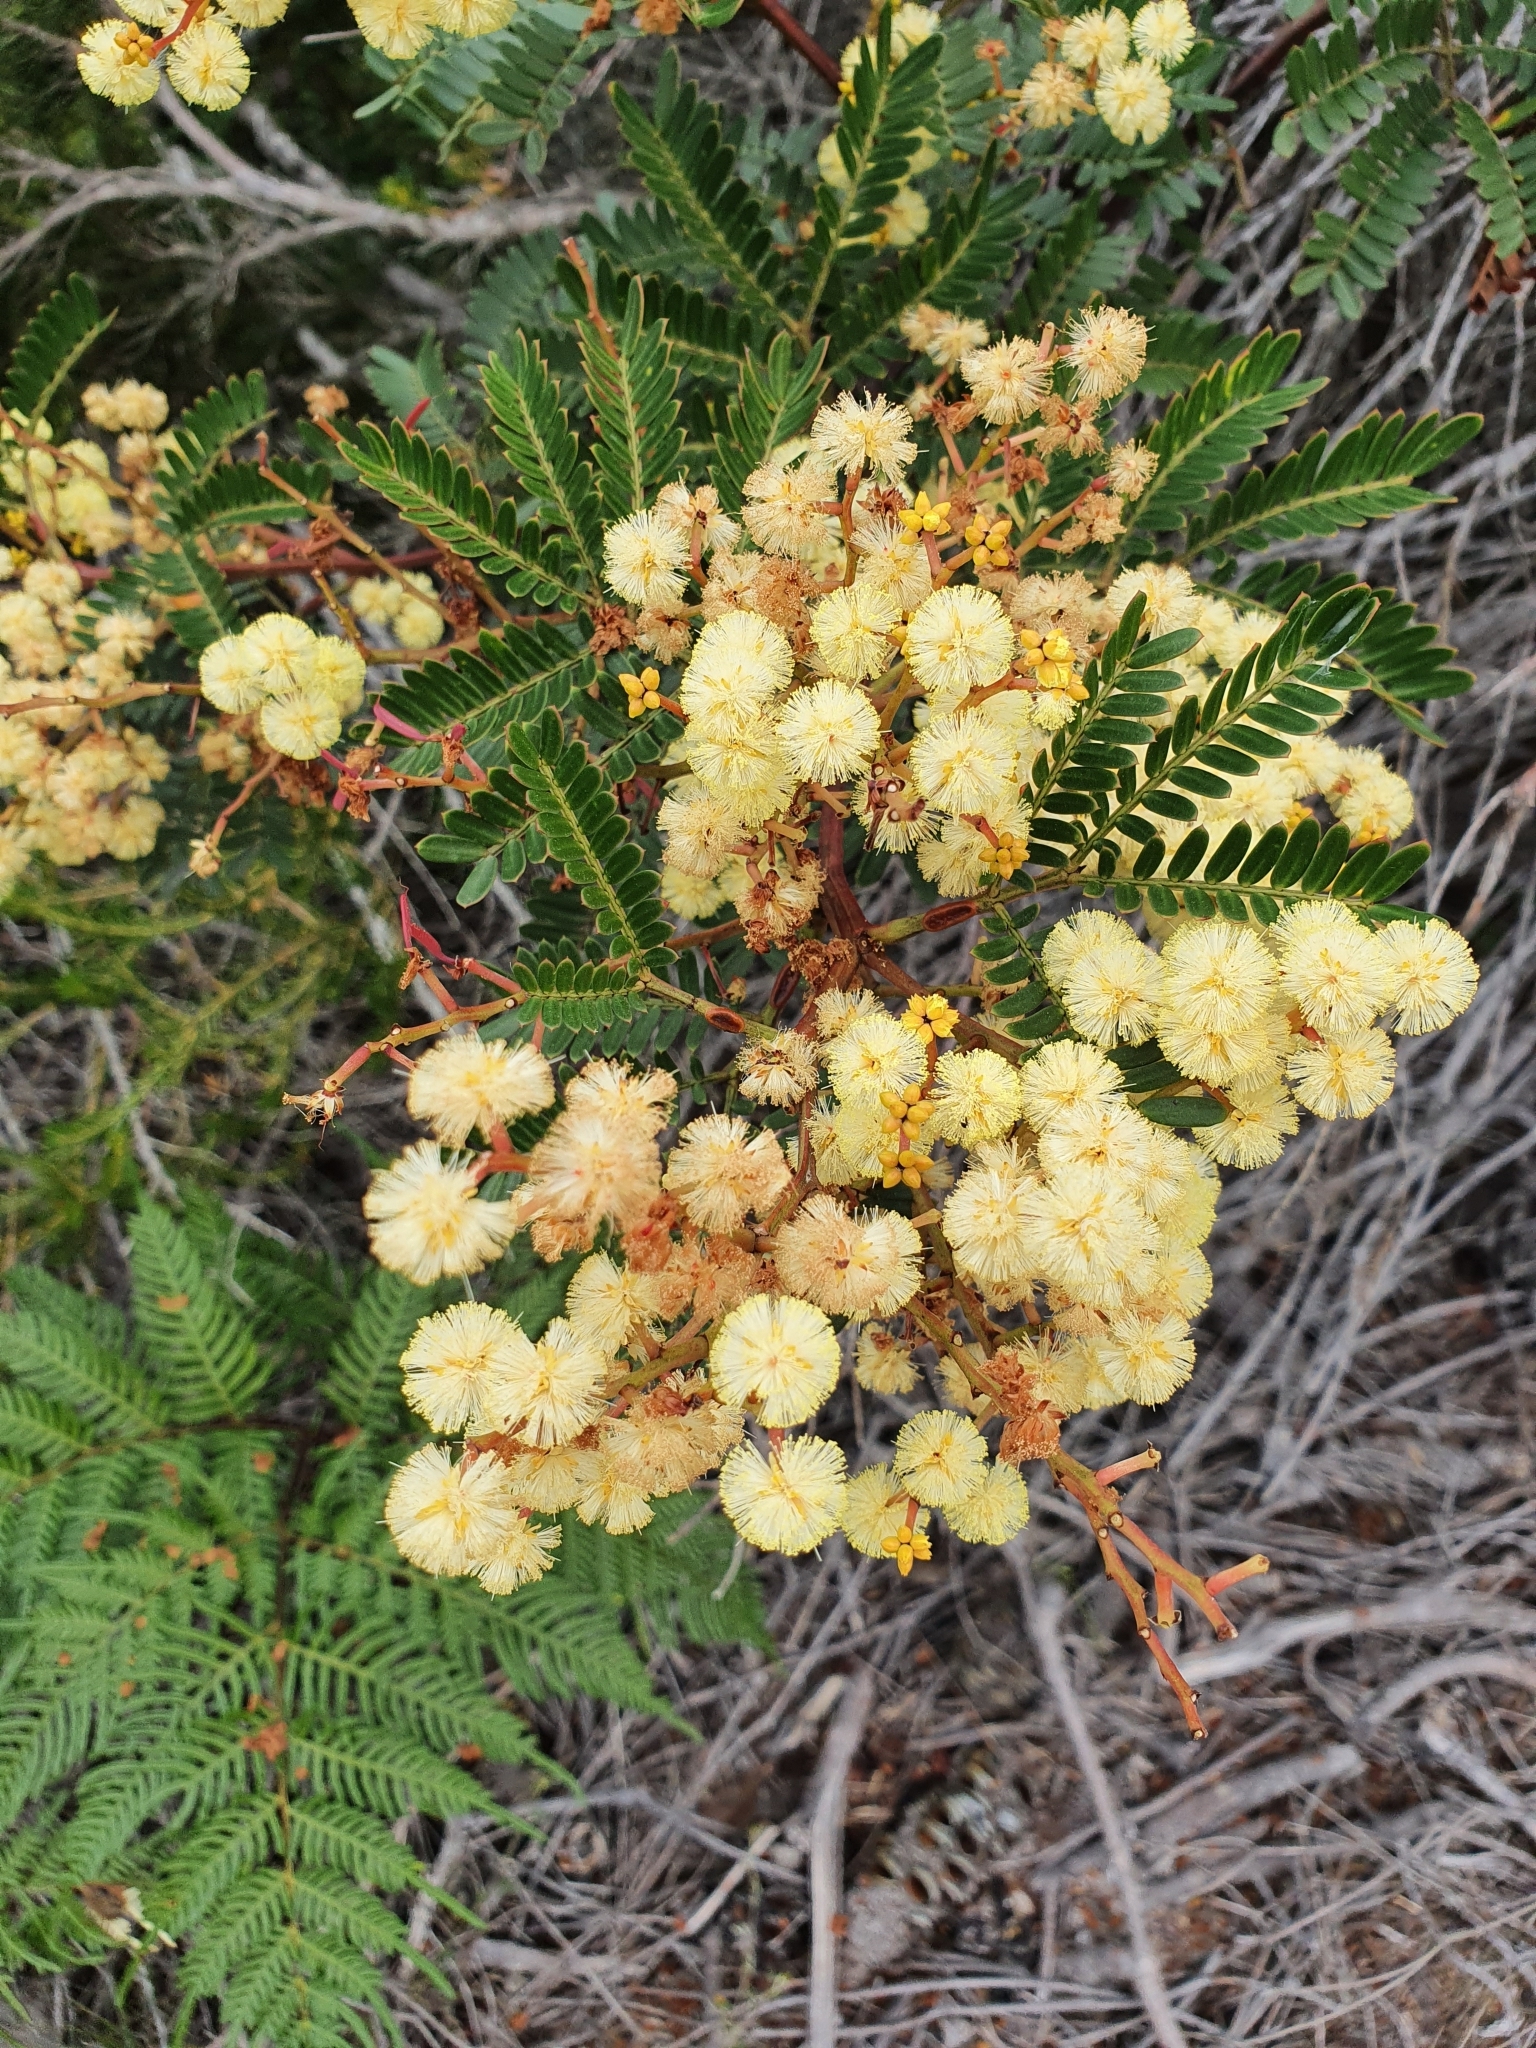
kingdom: Plantae
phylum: Tracheophyta
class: Magnoliopsida
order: Fabales
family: Fabaceae
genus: Acacia
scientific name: Acacia terminalis
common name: Cedar wattle
